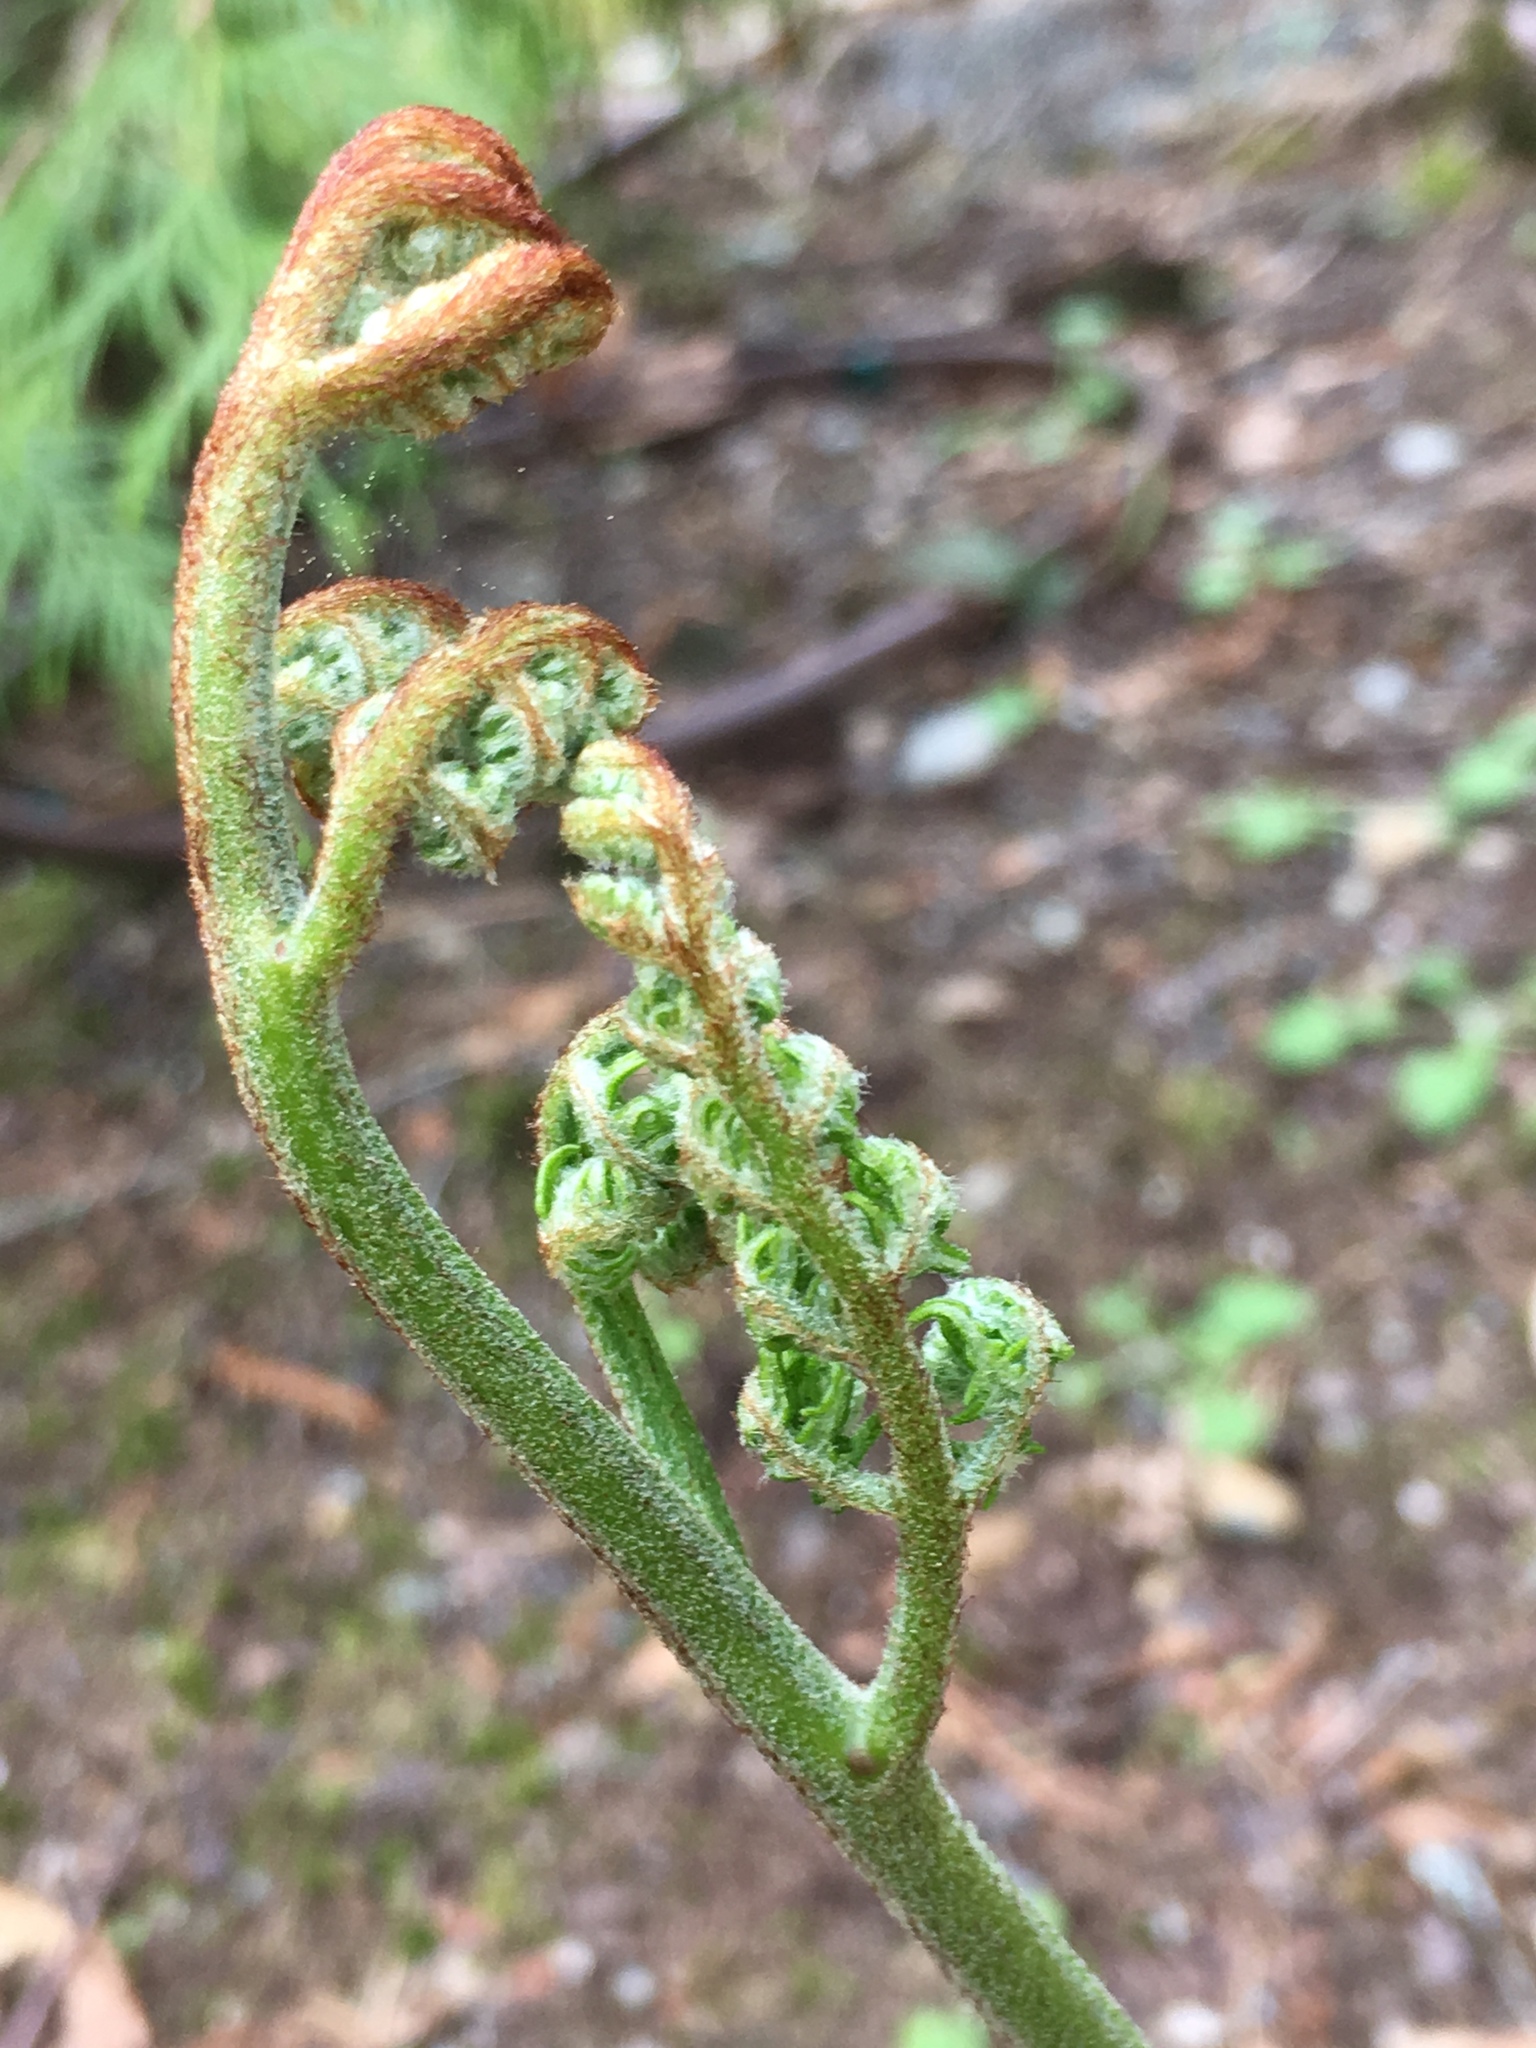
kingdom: Plantae
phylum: Tracheophyta
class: Polypodiopsida
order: Polypodiales
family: Dennstaedtiaceae
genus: Pteridium
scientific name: Pteridium aquilinum
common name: Bracken
